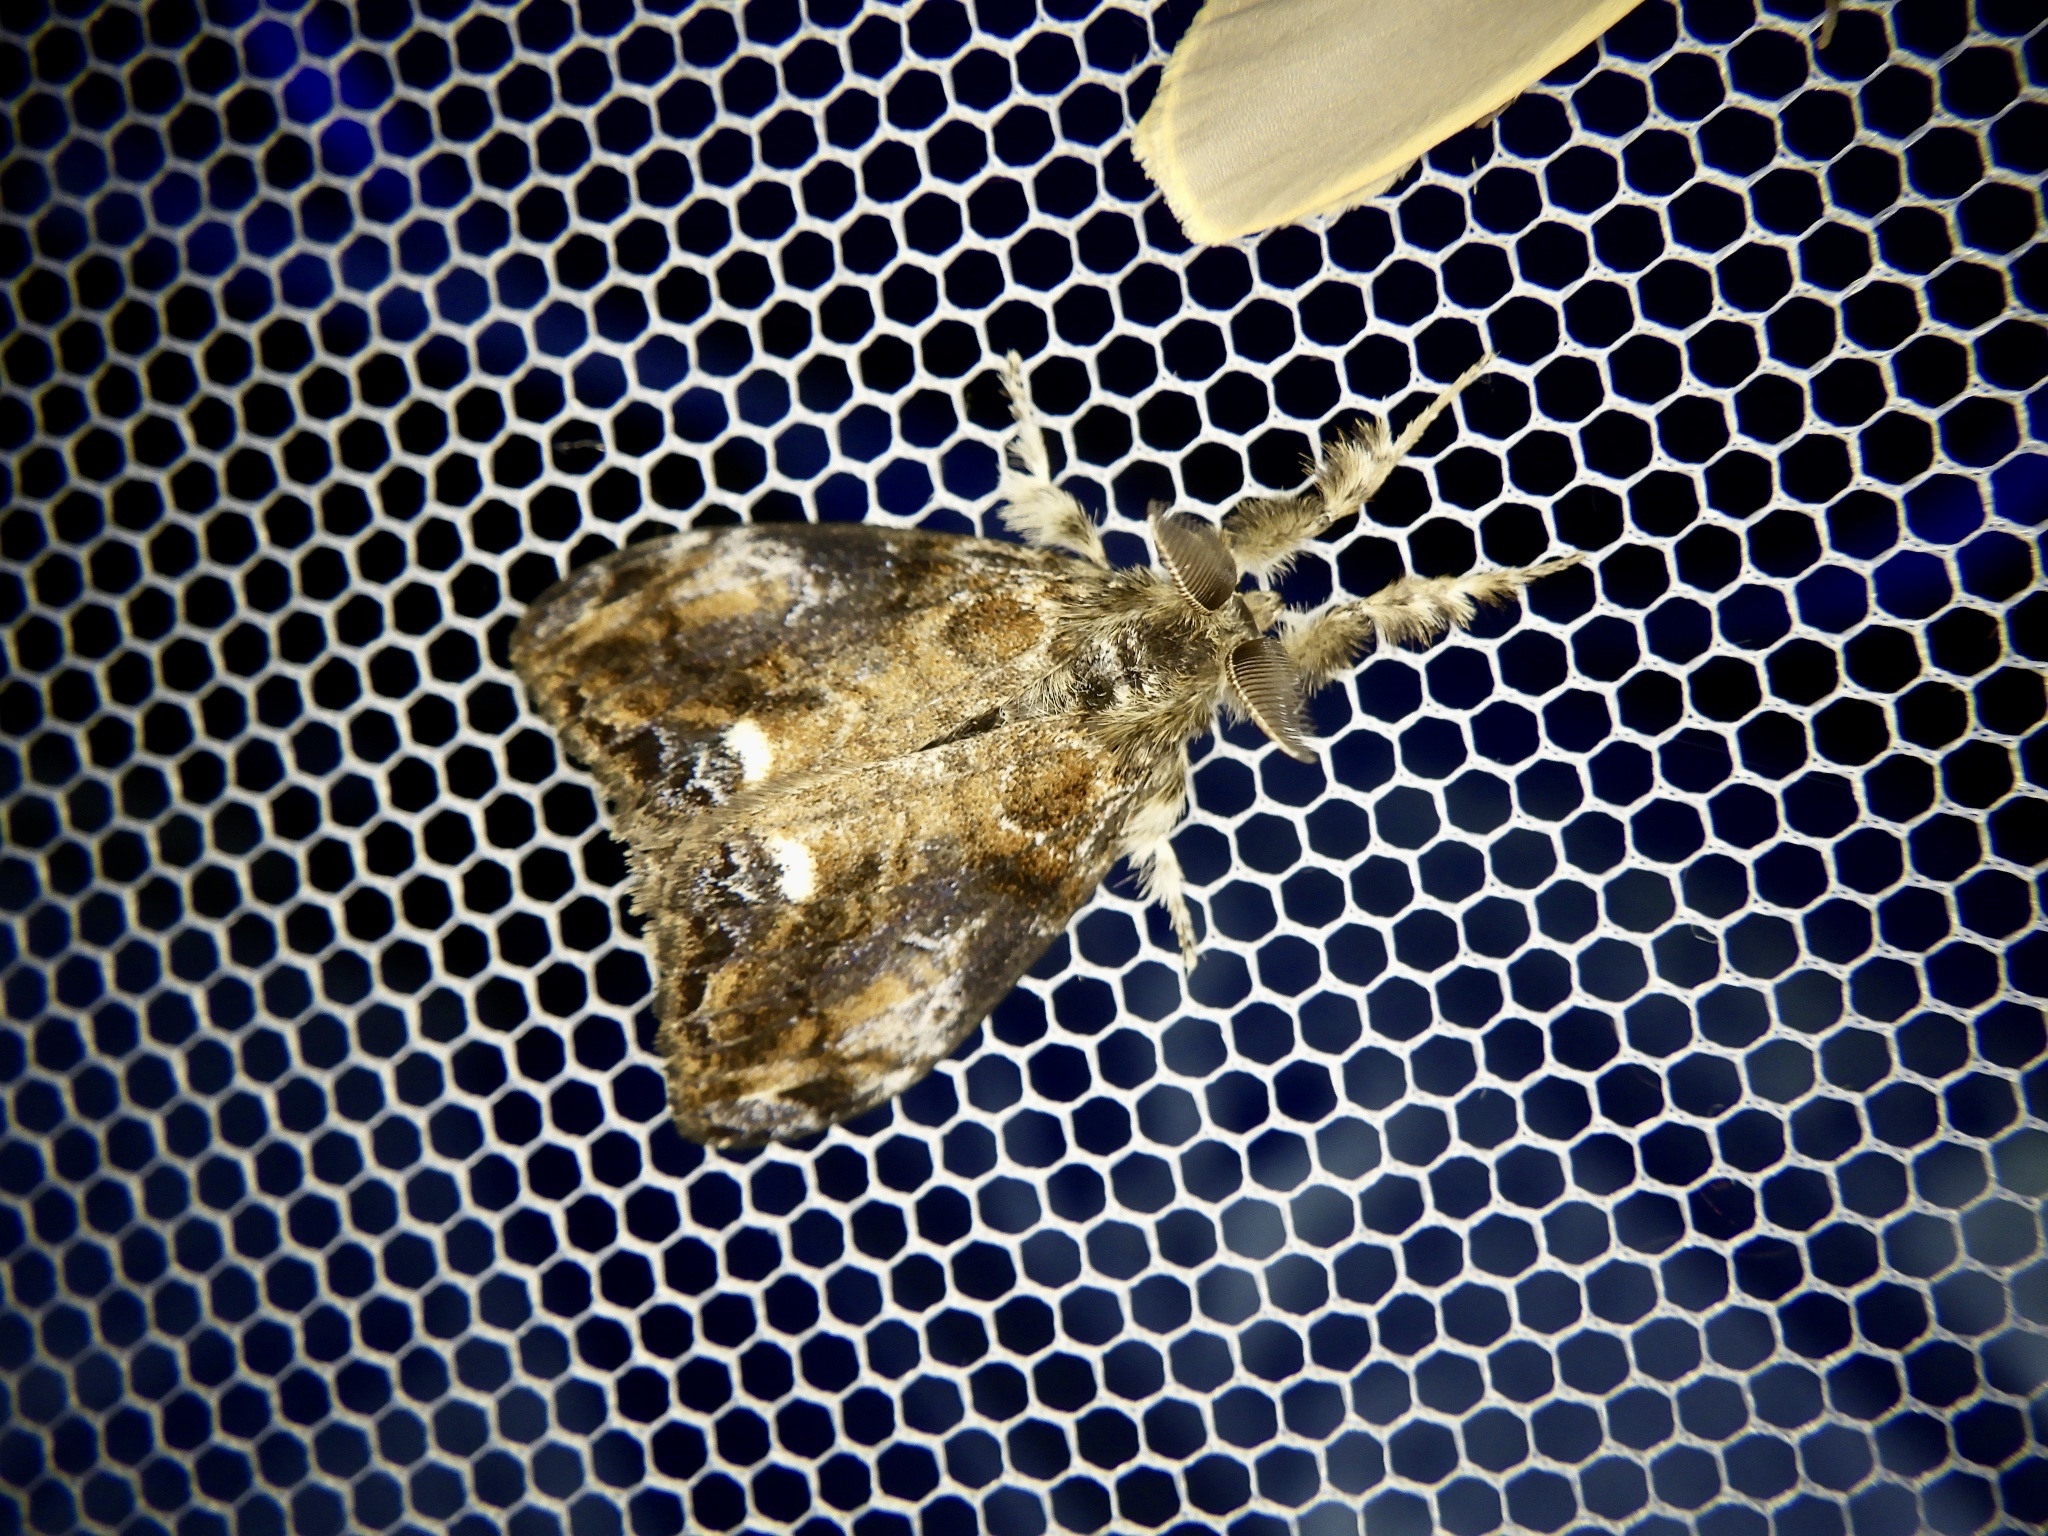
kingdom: Animalia
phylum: Arthropoda
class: Insecta
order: Lepidoptera
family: Erebidae
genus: Orgyia
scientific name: Orgyia thyellina
